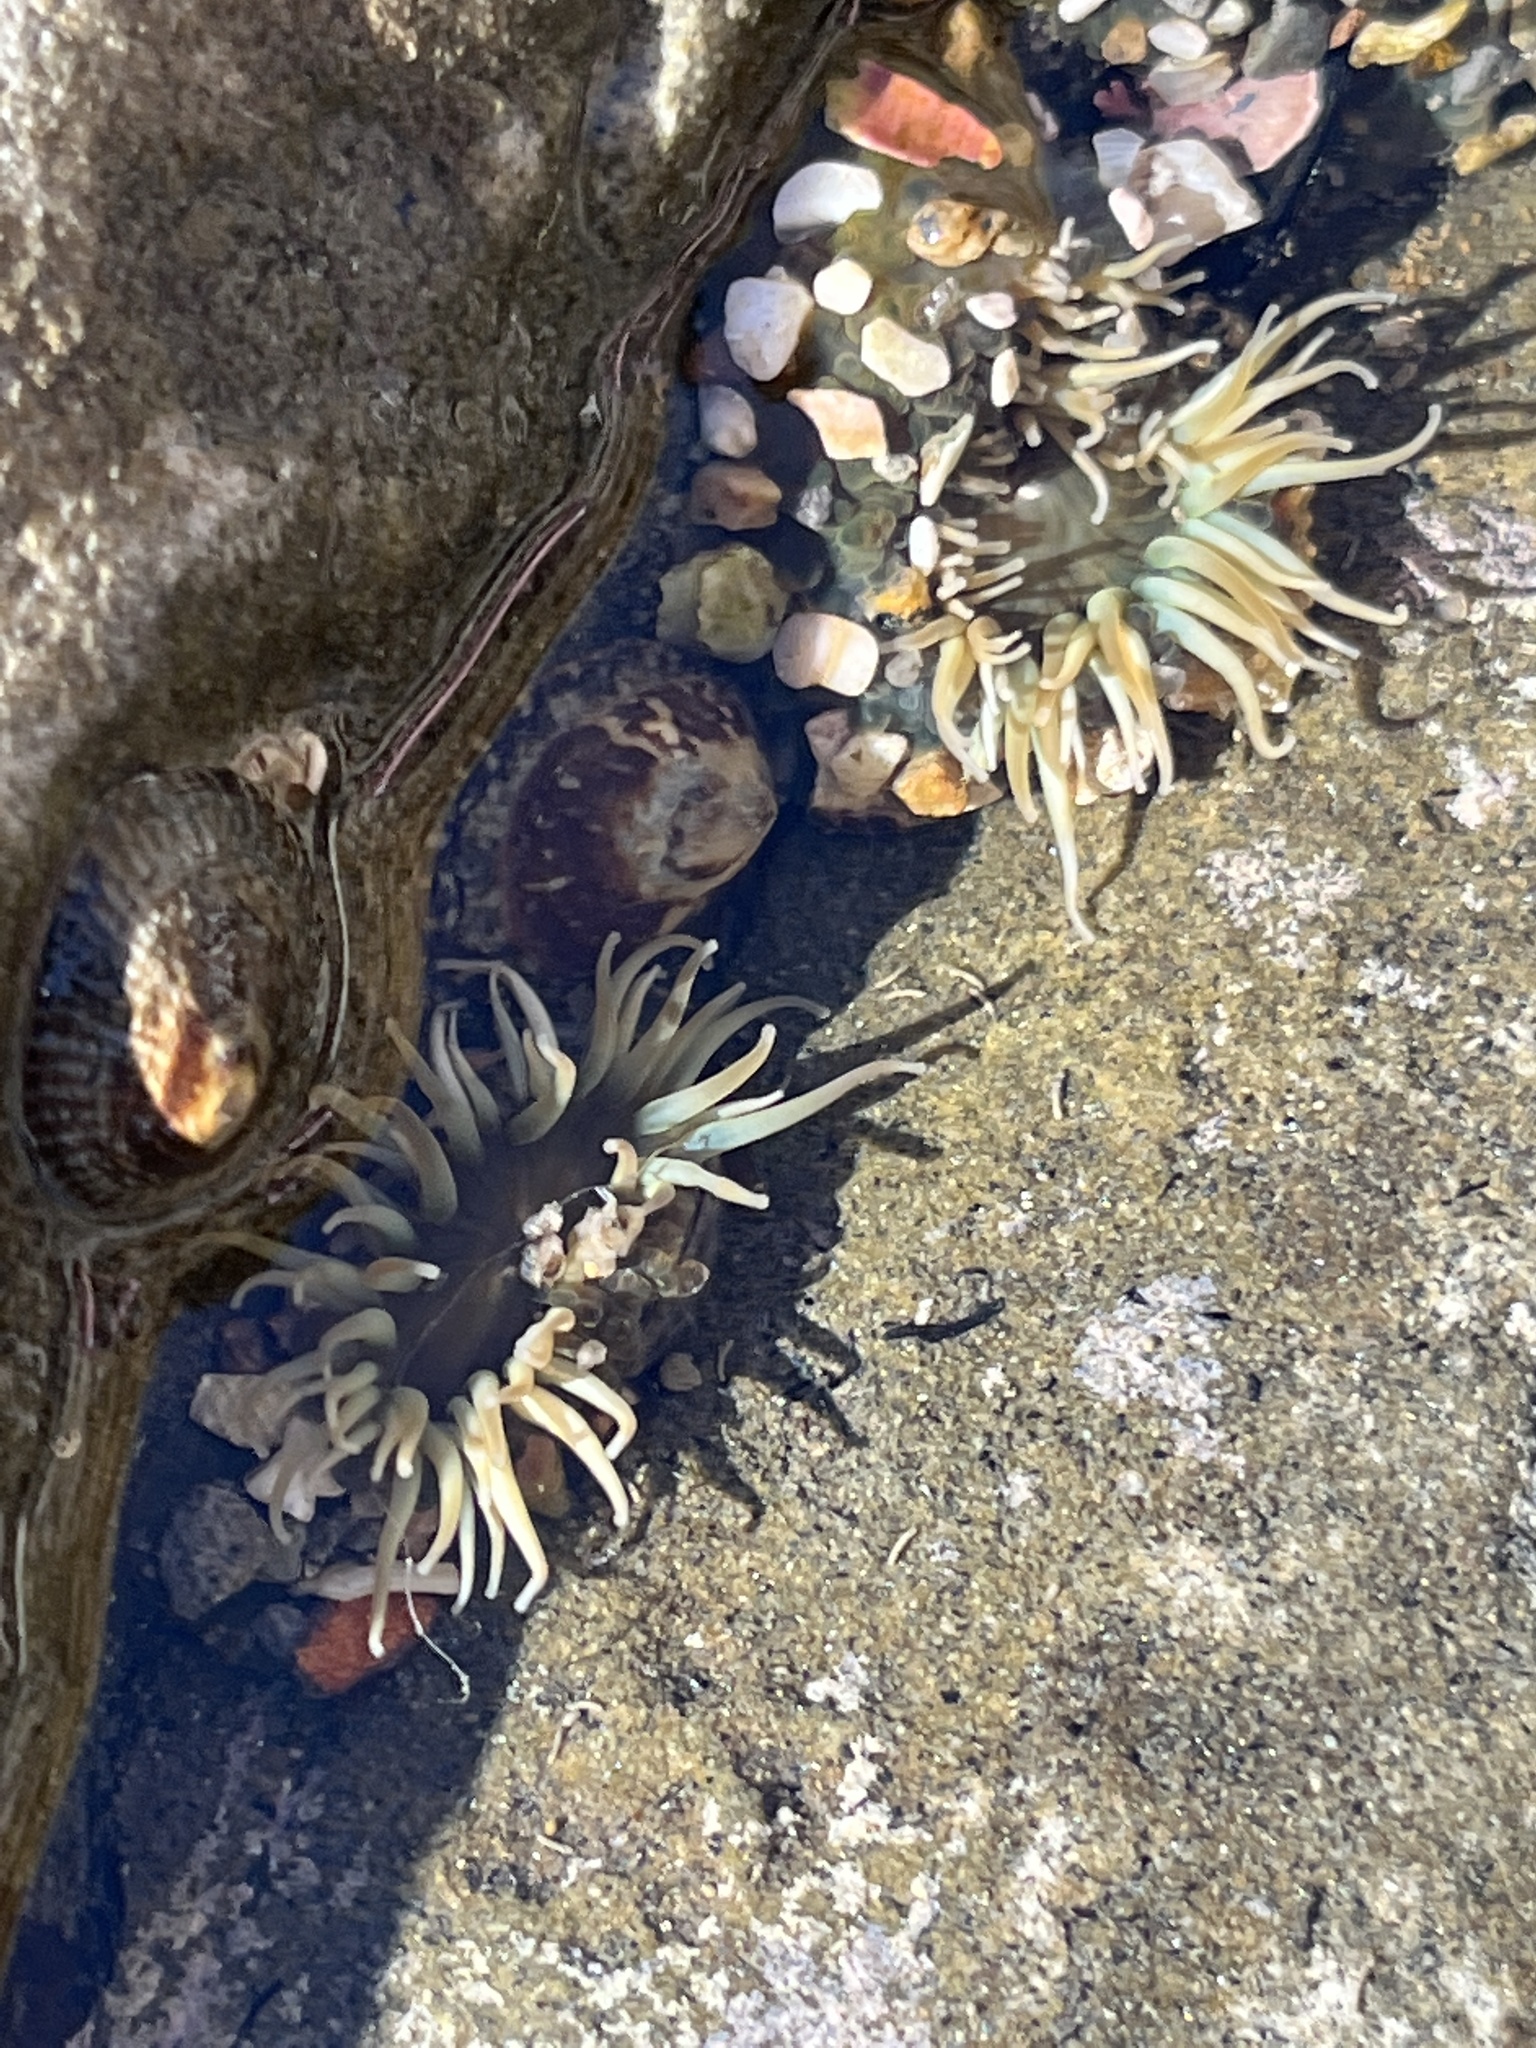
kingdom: Animalia
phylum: Cnidaria
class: Anthozoa
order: Actiniaria
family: Actiniidae
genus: Anthopleura
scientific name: Anthopleura elegantissima
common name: Clonal anemone
